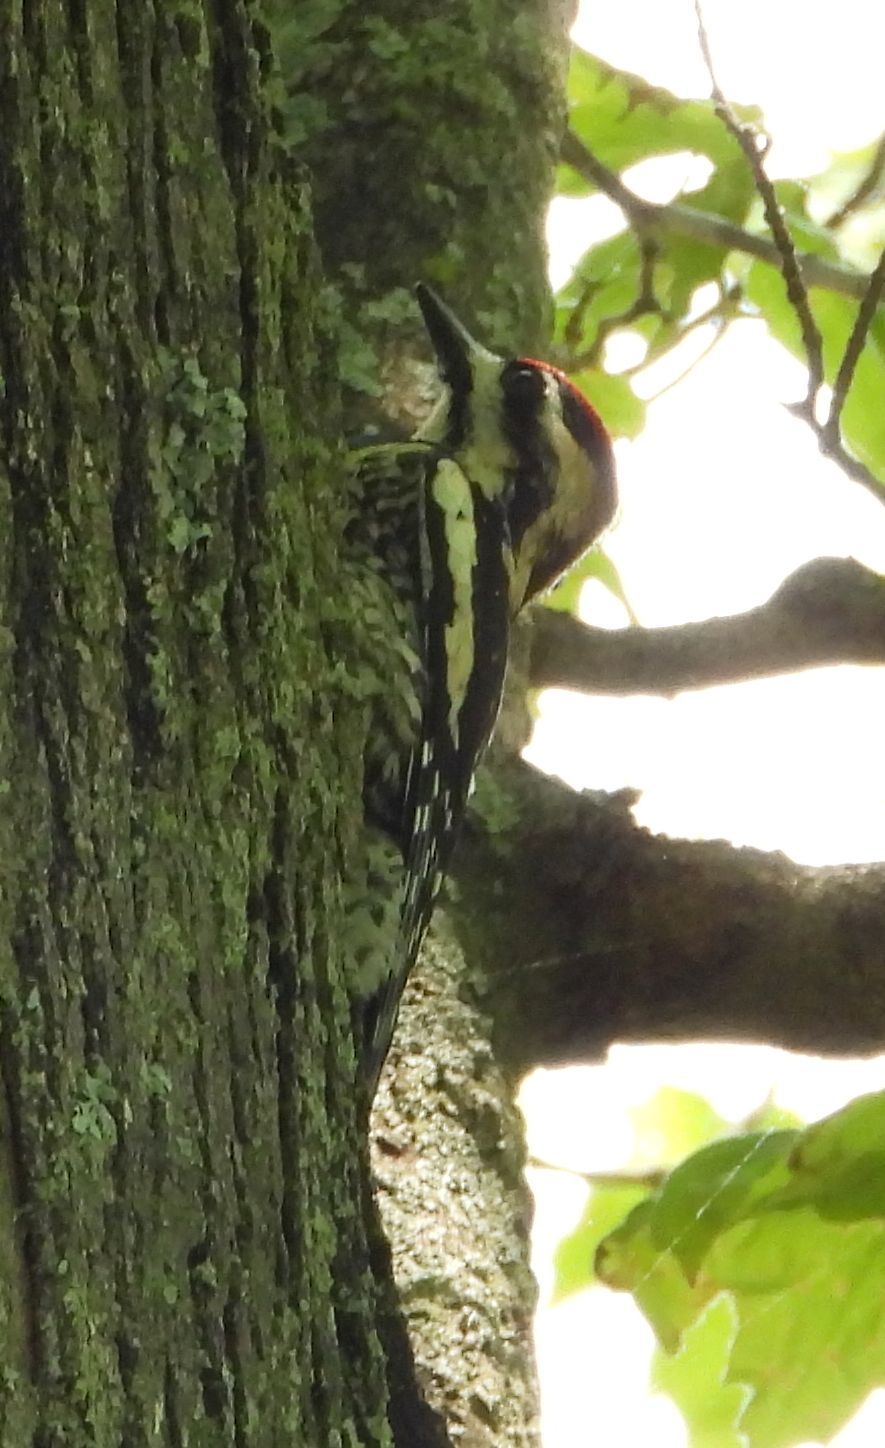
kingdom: Animalia
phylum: Chordata
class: Aves
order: Piciformes
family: Picidae
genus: Sphyrapicus
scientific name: Sphyrapicus varius
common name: Yellow-bellied sapsucker
